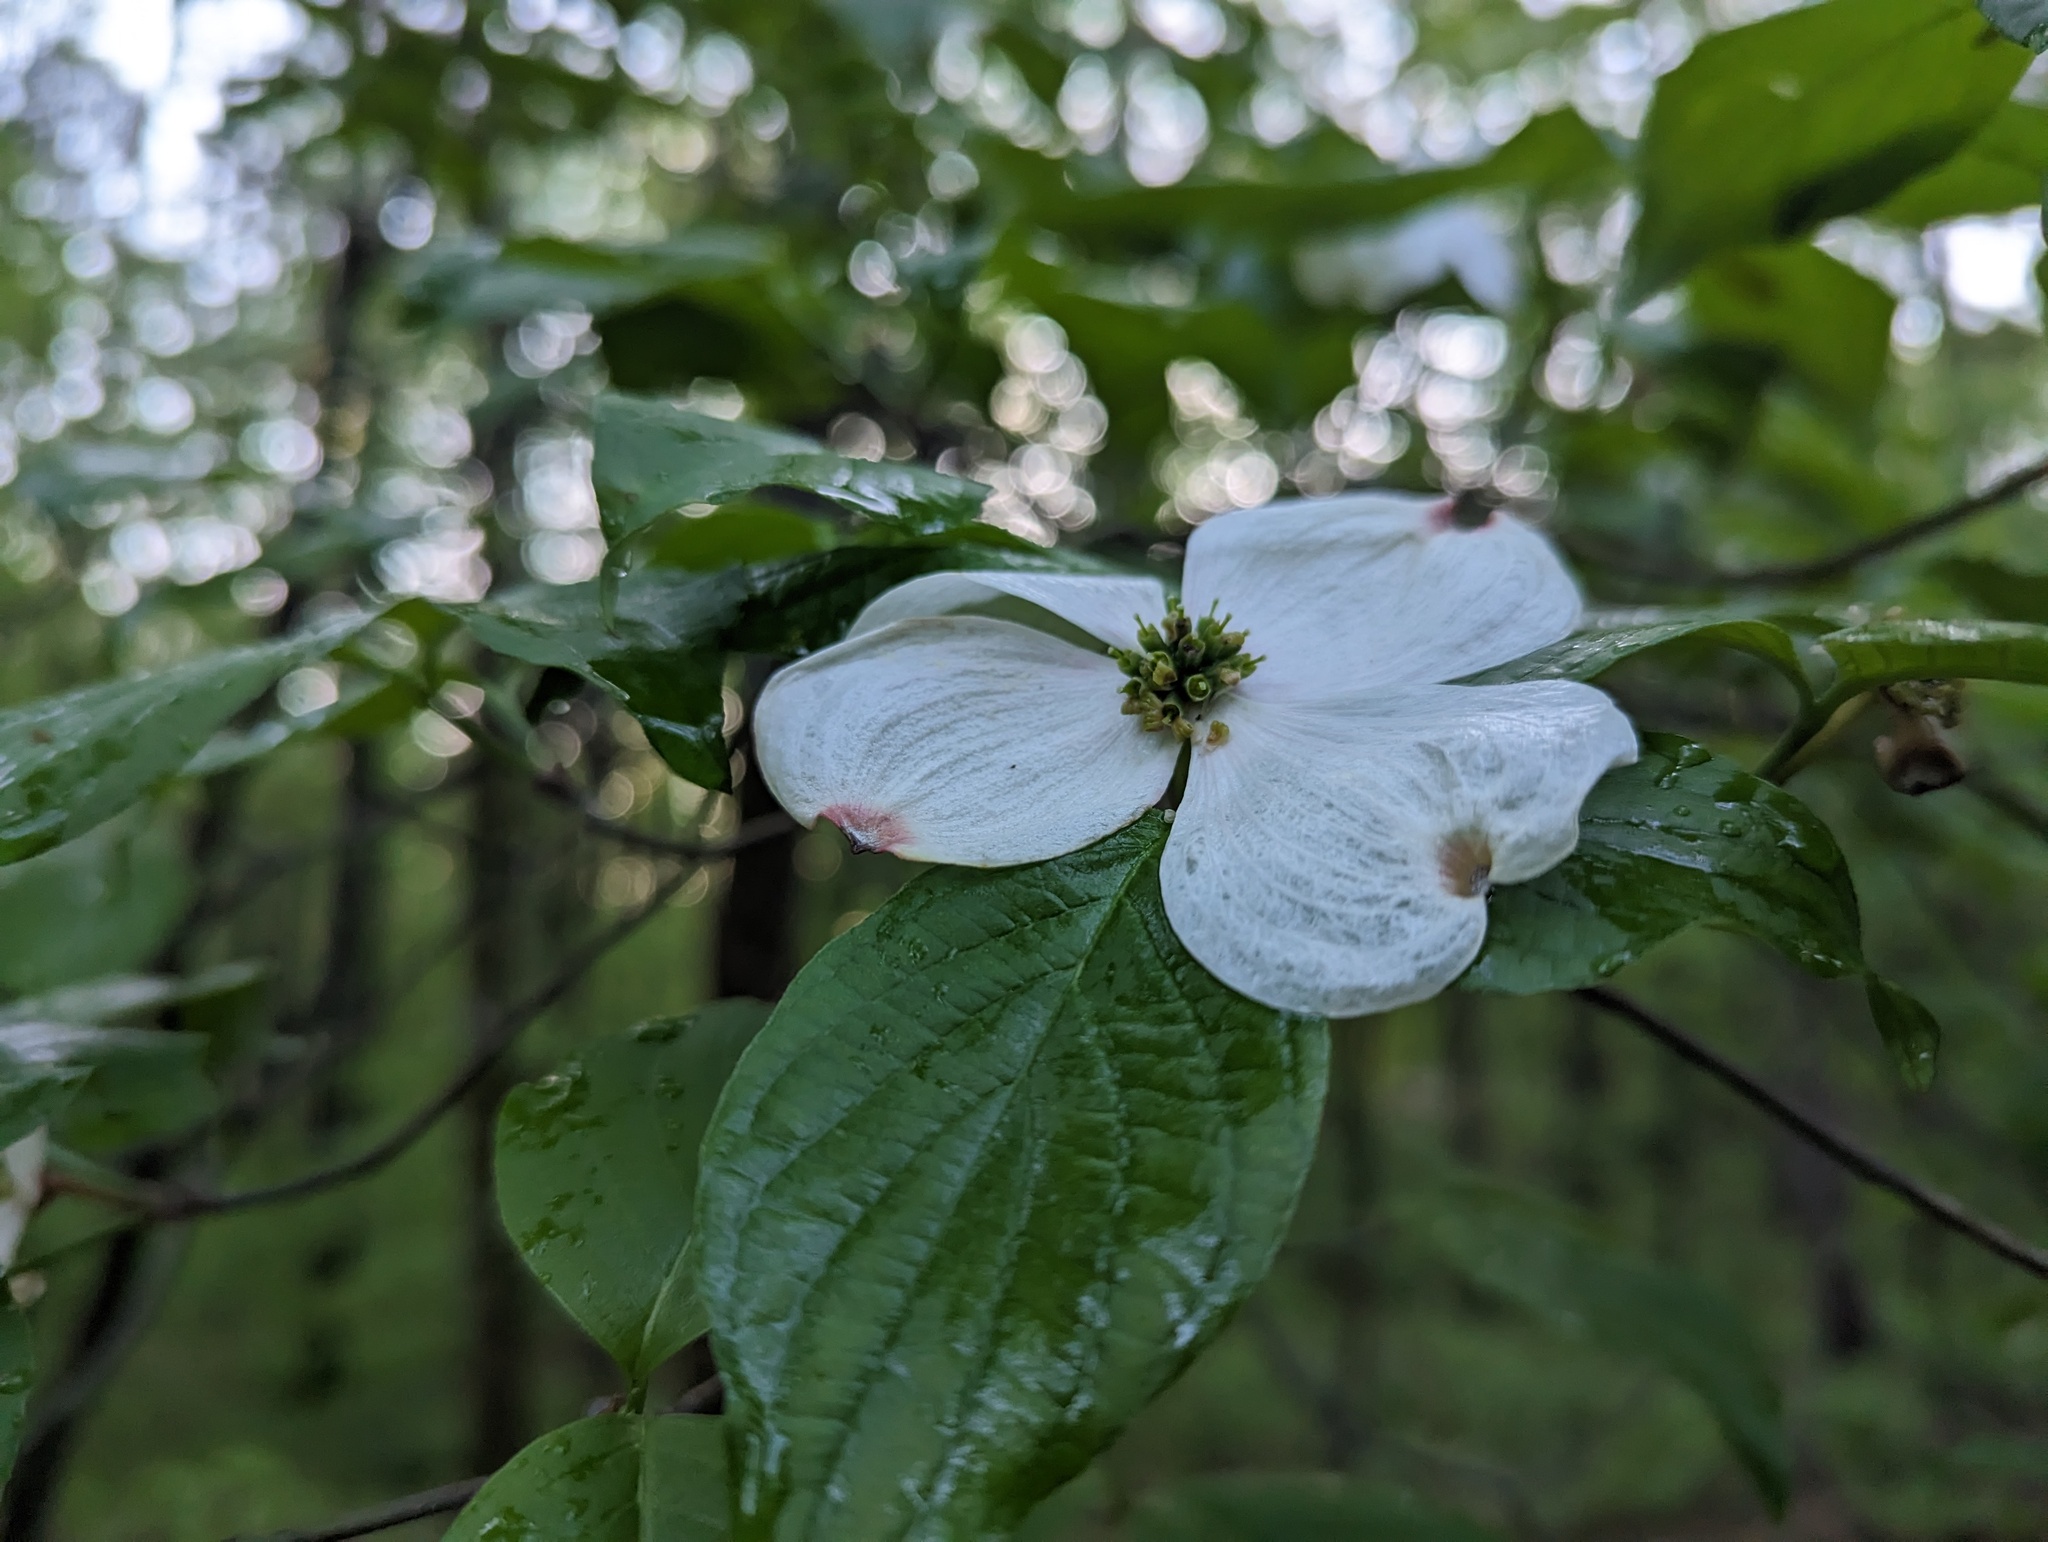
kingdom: Plantae
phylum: Tracheophyta
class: Magnoliopsida
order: Cornales
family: Cornaceae
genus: Cornus
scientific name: Cornus florida
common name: Flowering dogwood
